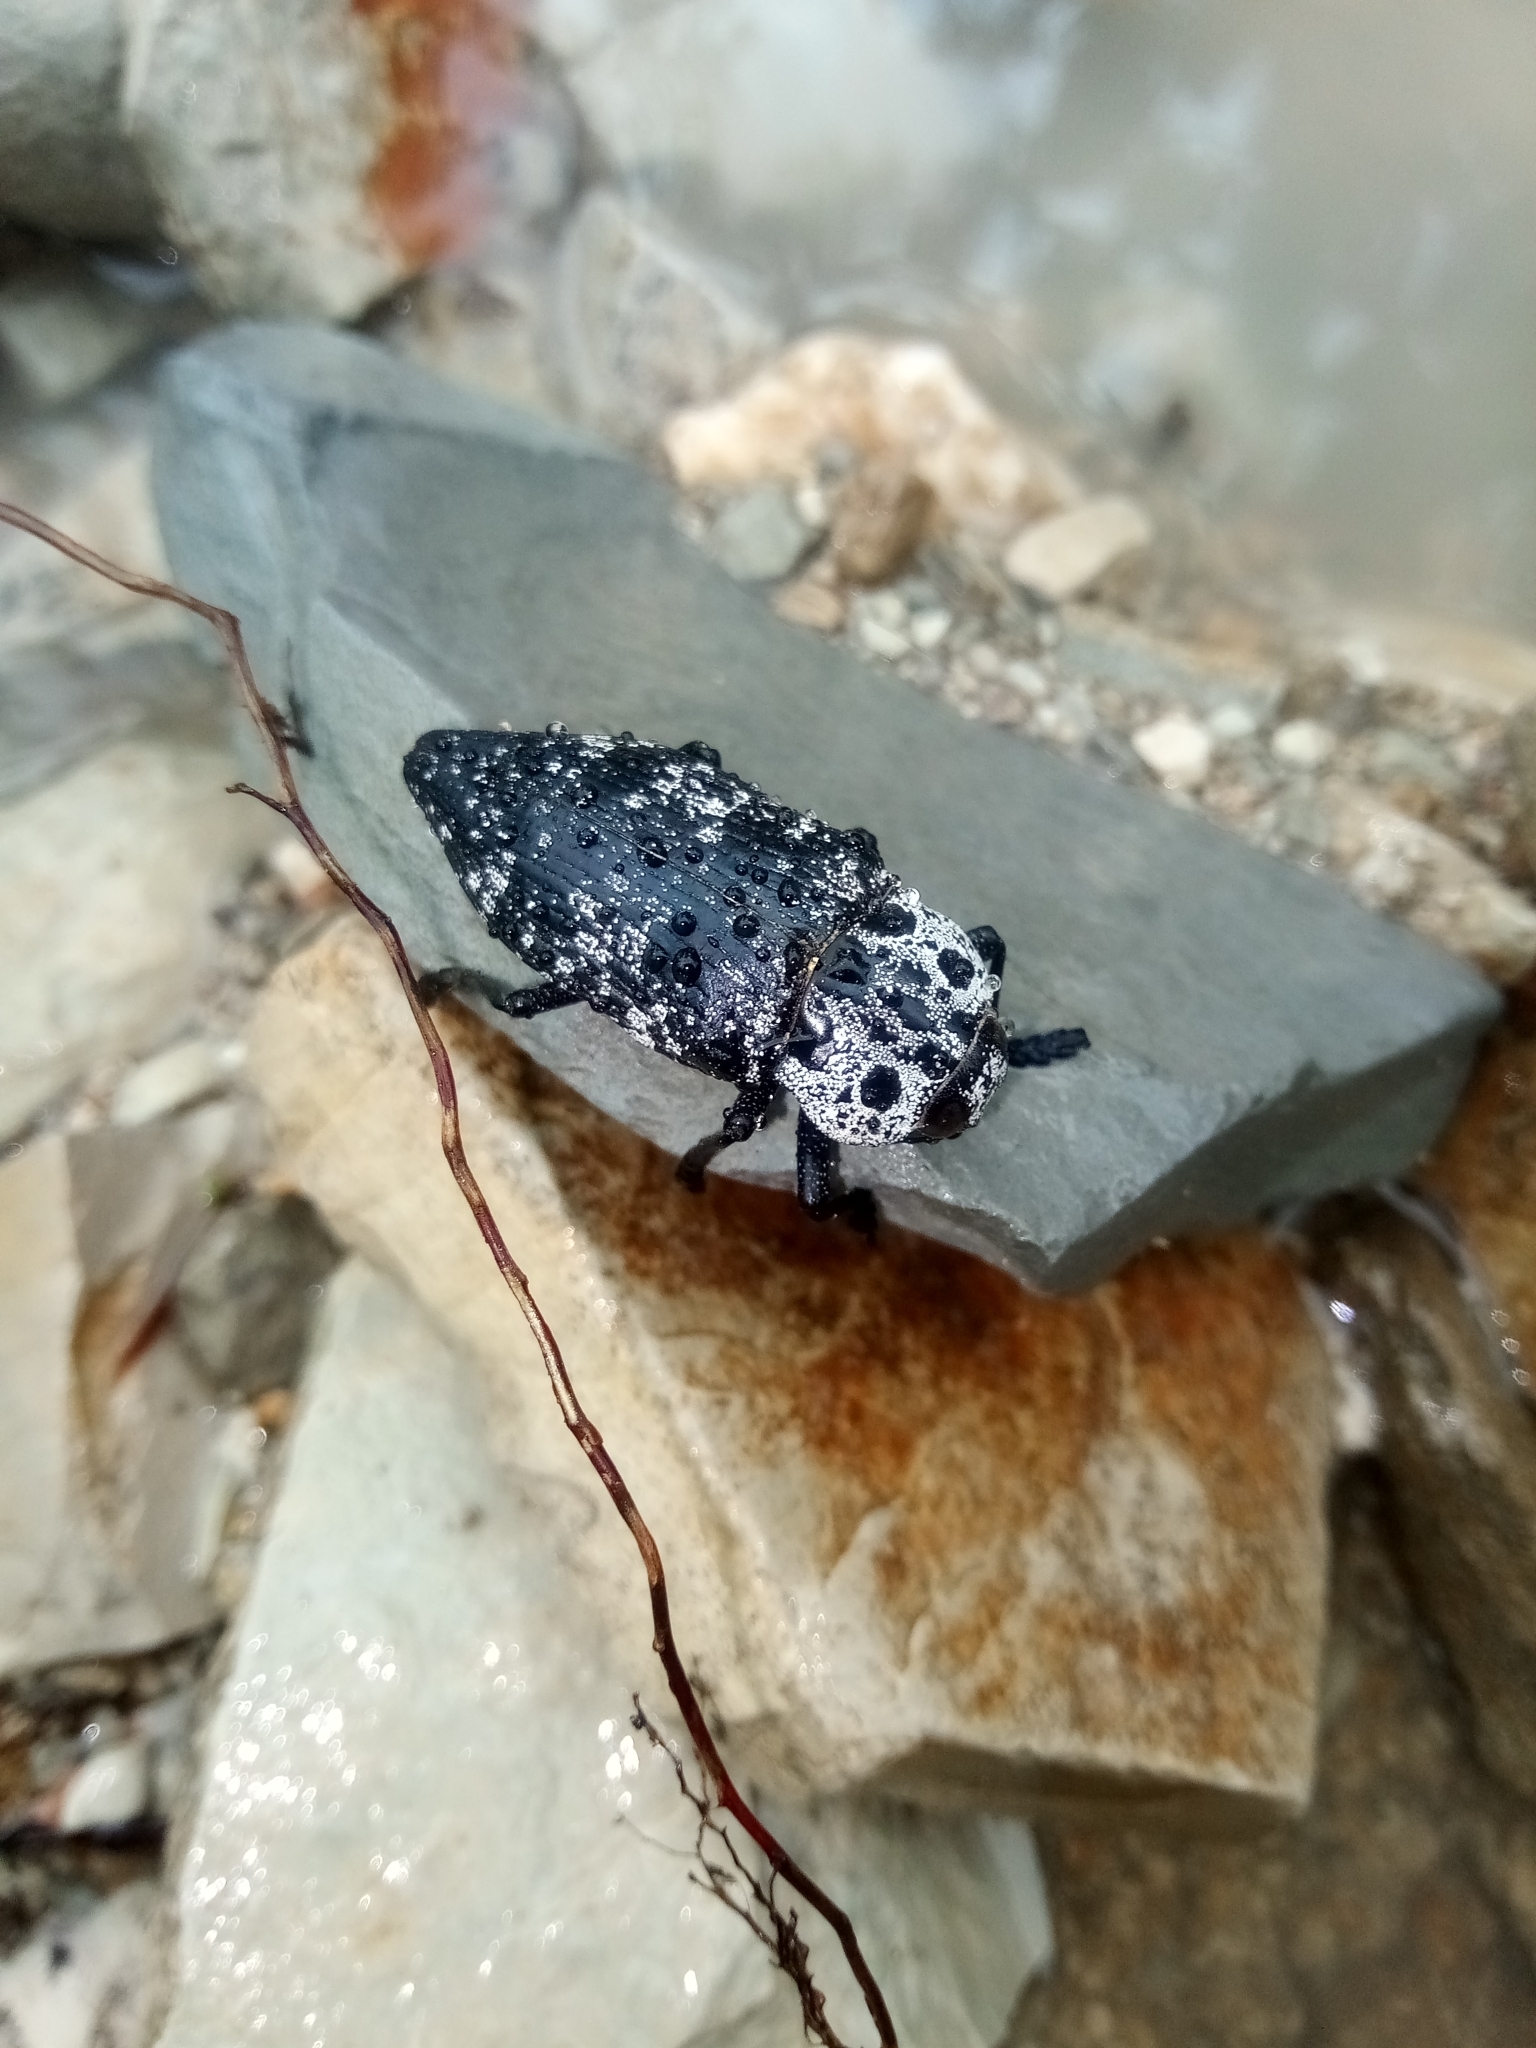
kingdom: Animalia
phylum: Arthropoda
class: Insecta
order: Coleoptera
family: Buprestidae
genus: Capnodis
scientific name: Capnodis cariosa
